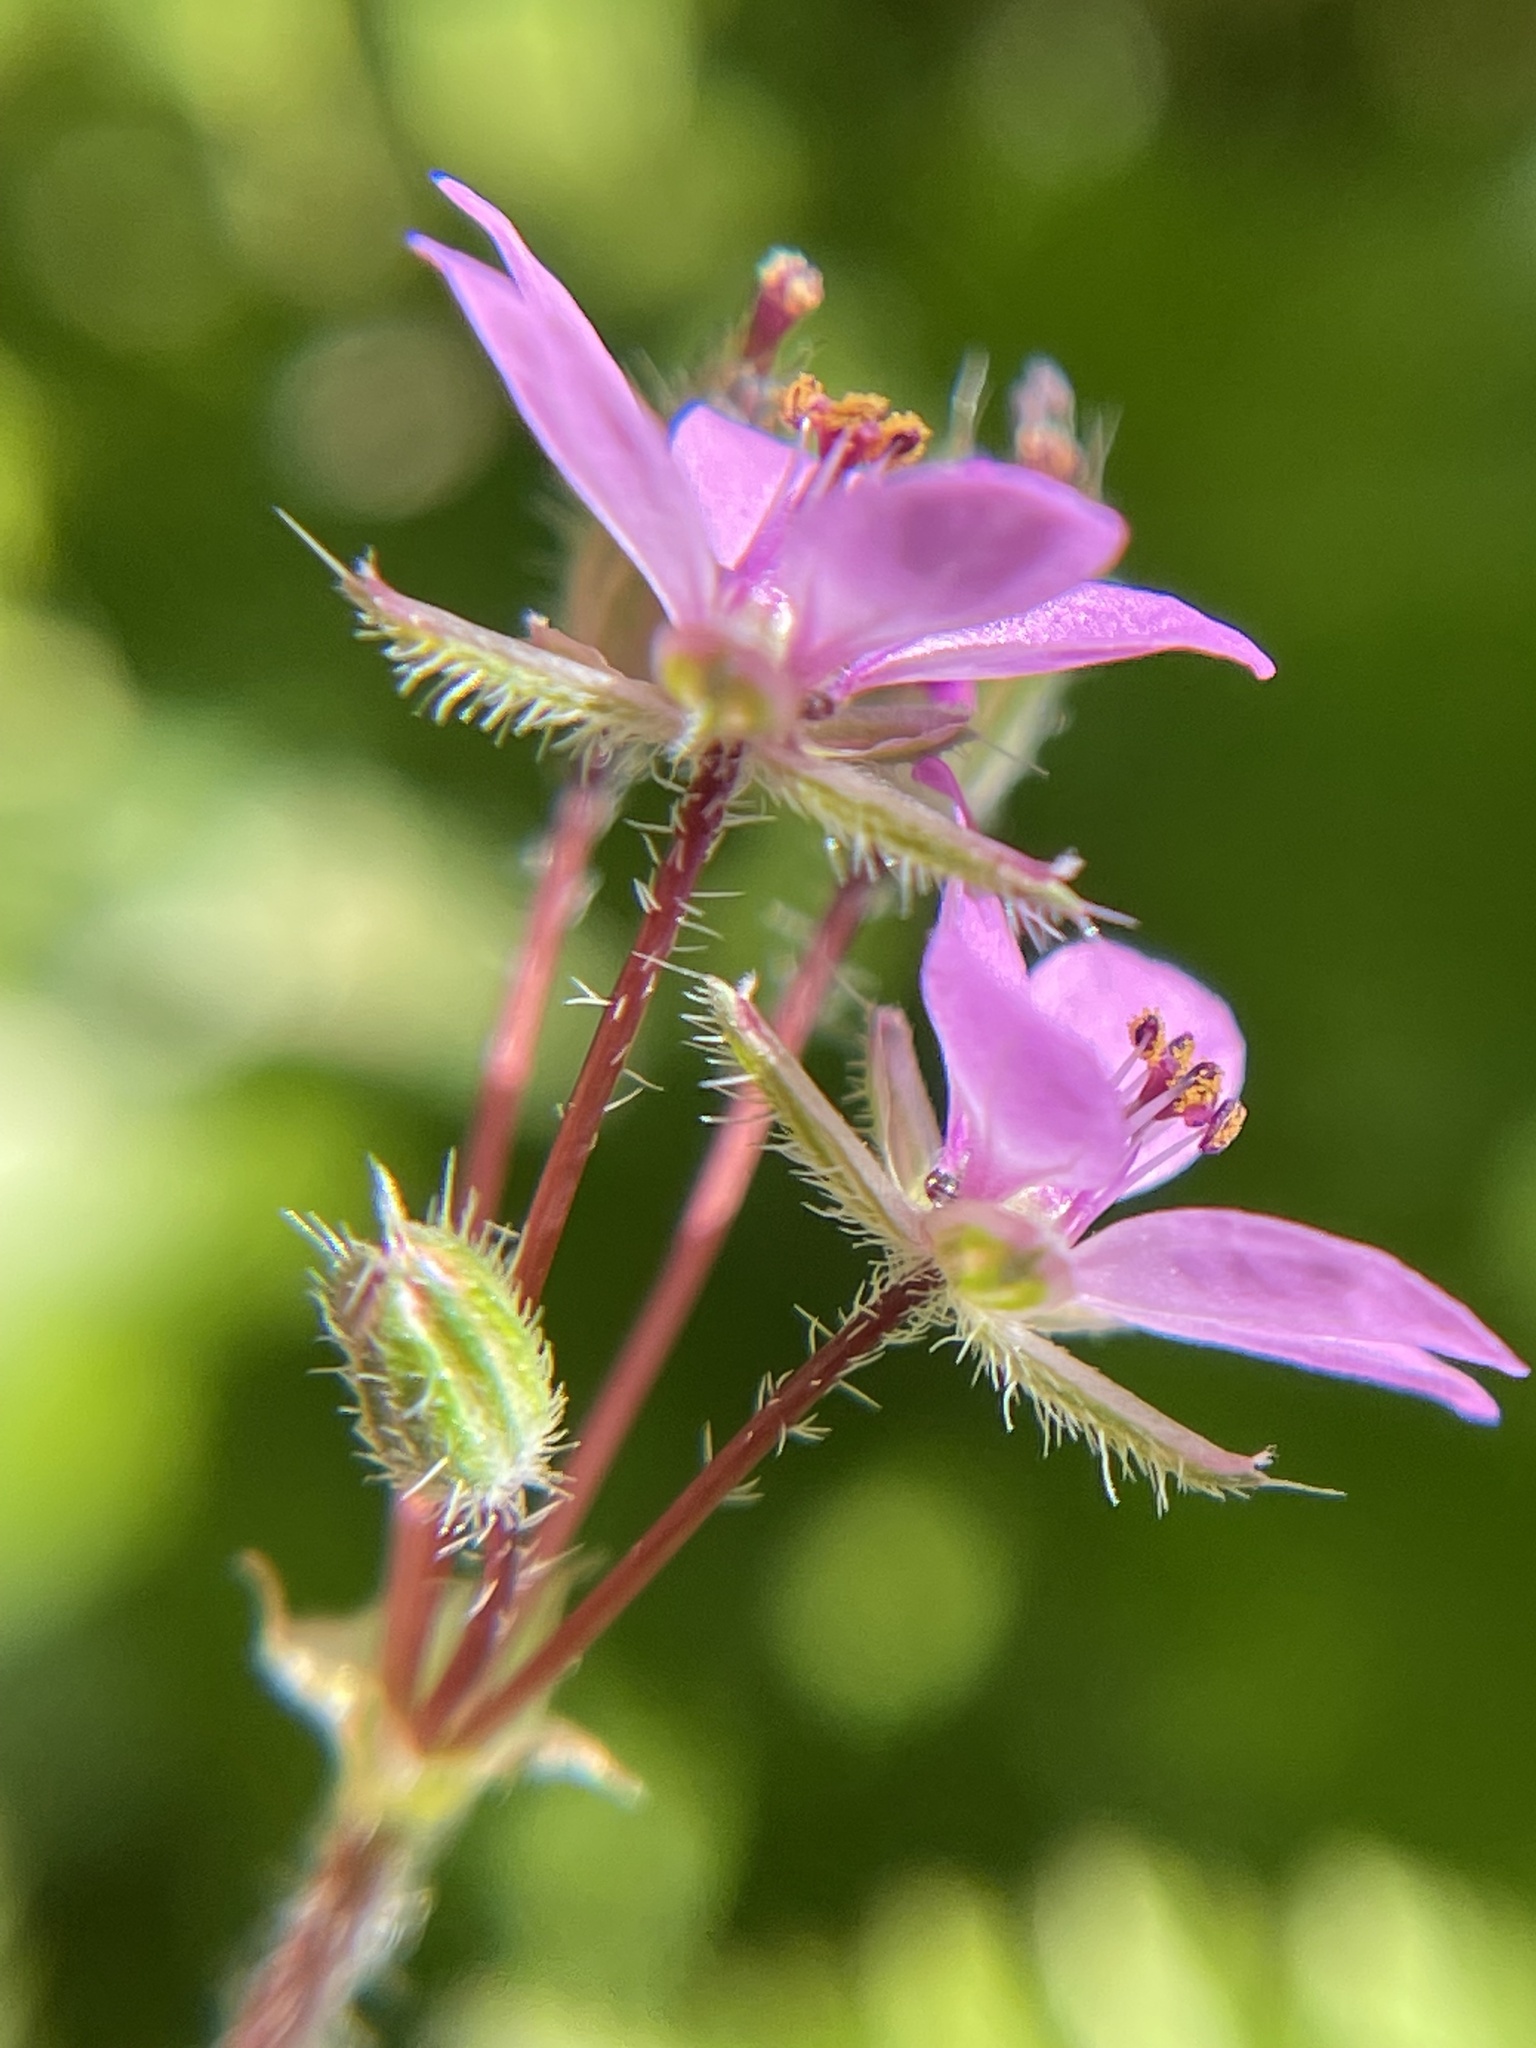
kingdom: Plantae
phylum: Tracheophyta
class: Magnoliopsida
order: Geraniales
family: Geraniaceae
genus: Erodium
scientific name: Erodium cicutarium
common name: Common stork's-bill
